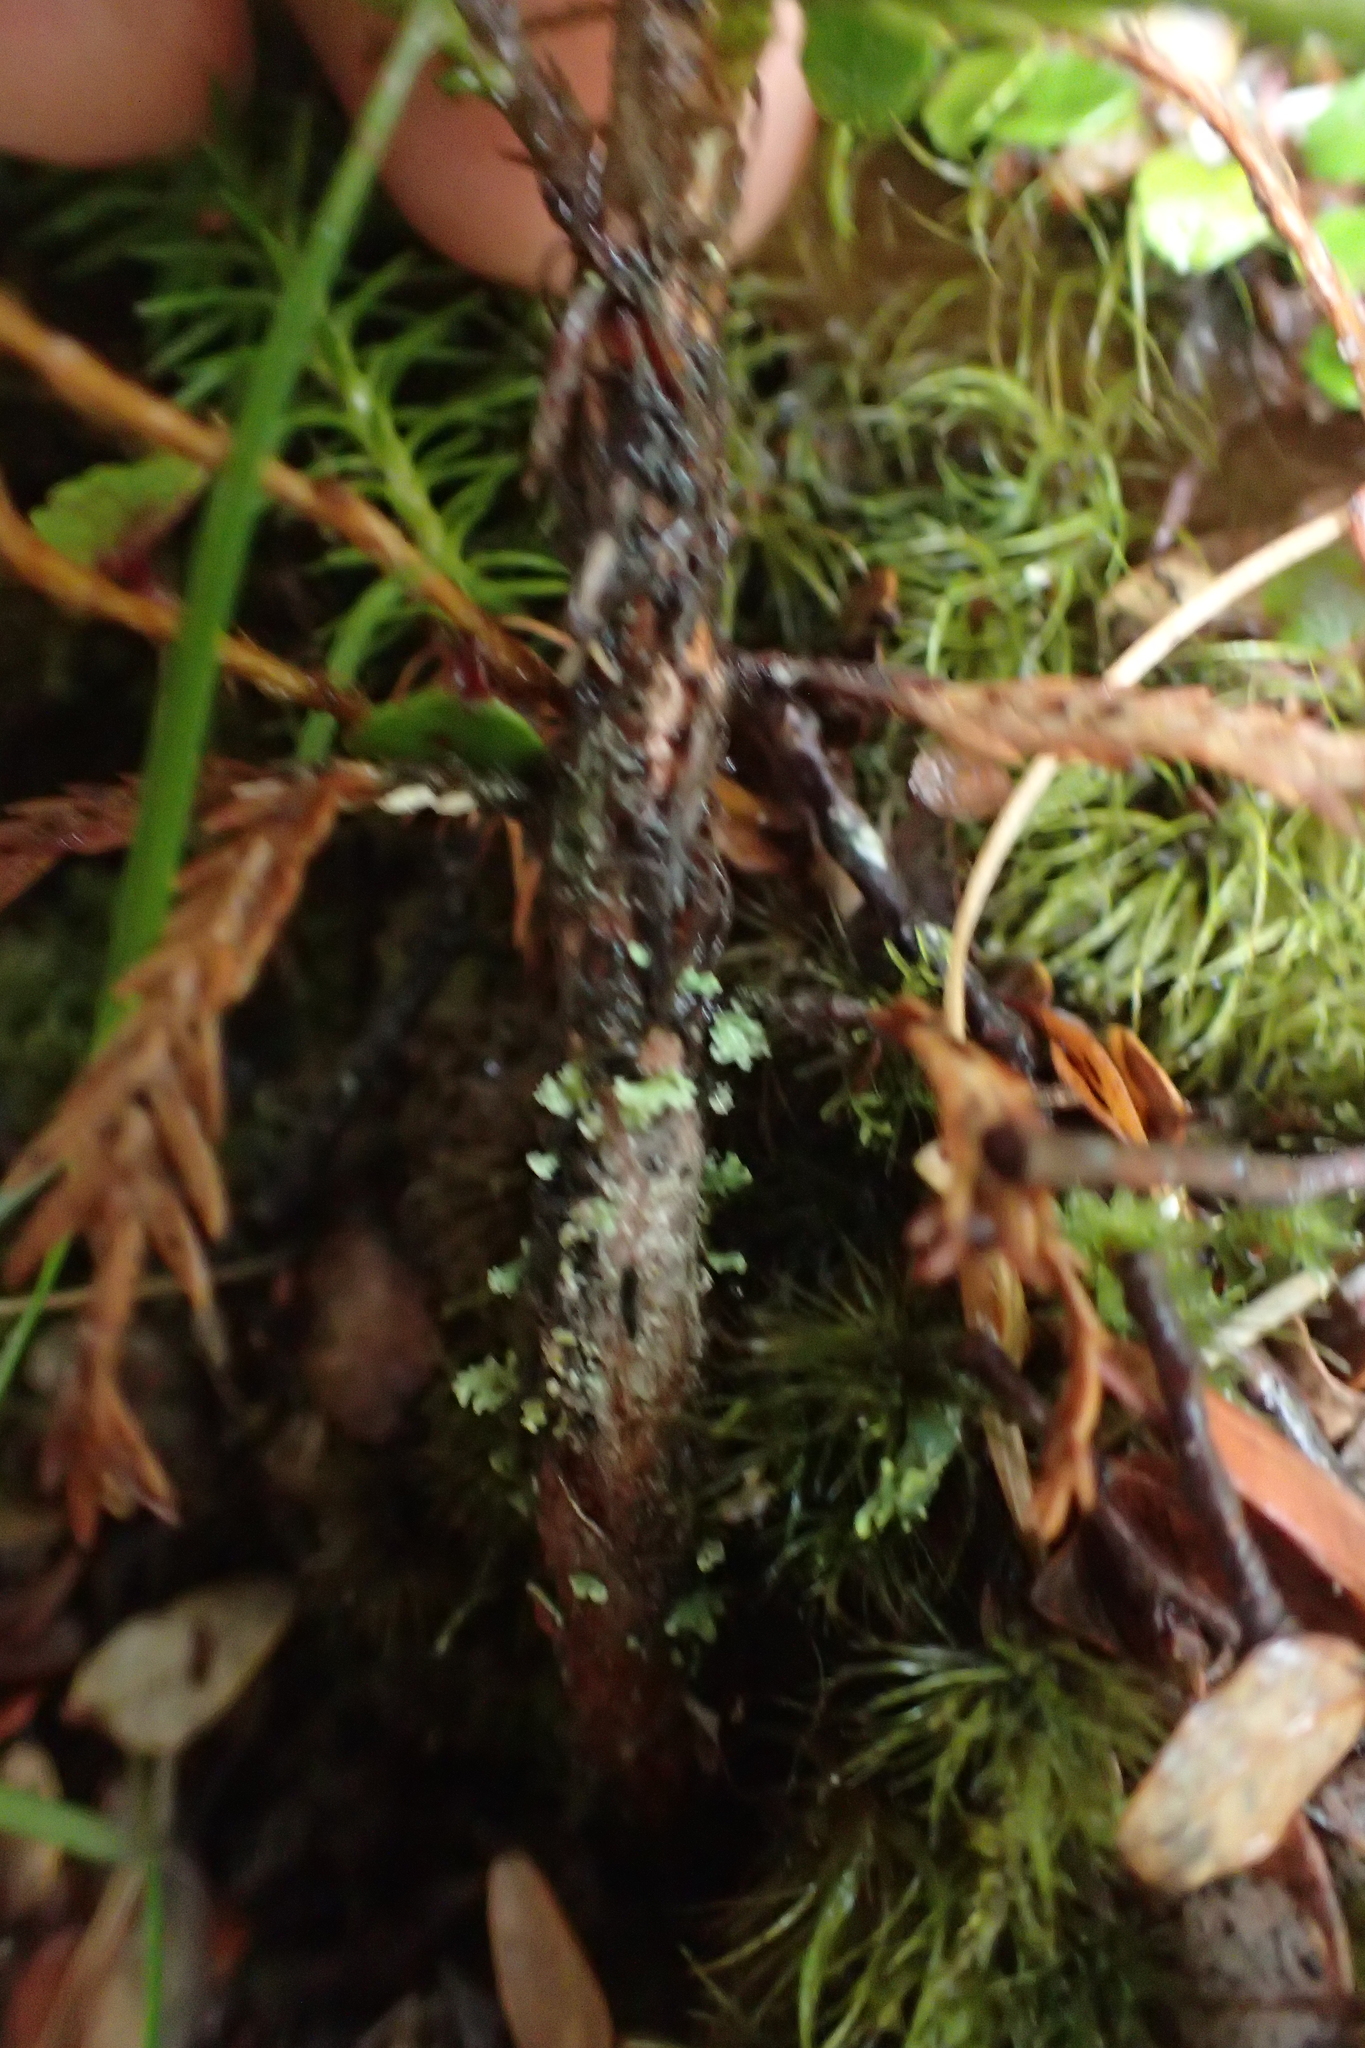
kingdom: Plantae
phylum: Tracheophyta
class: Pinopsida
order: Pinales
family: Cupressaceae
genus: Libocedrus
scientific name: Libocedrus bidwillii
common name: Cedar
